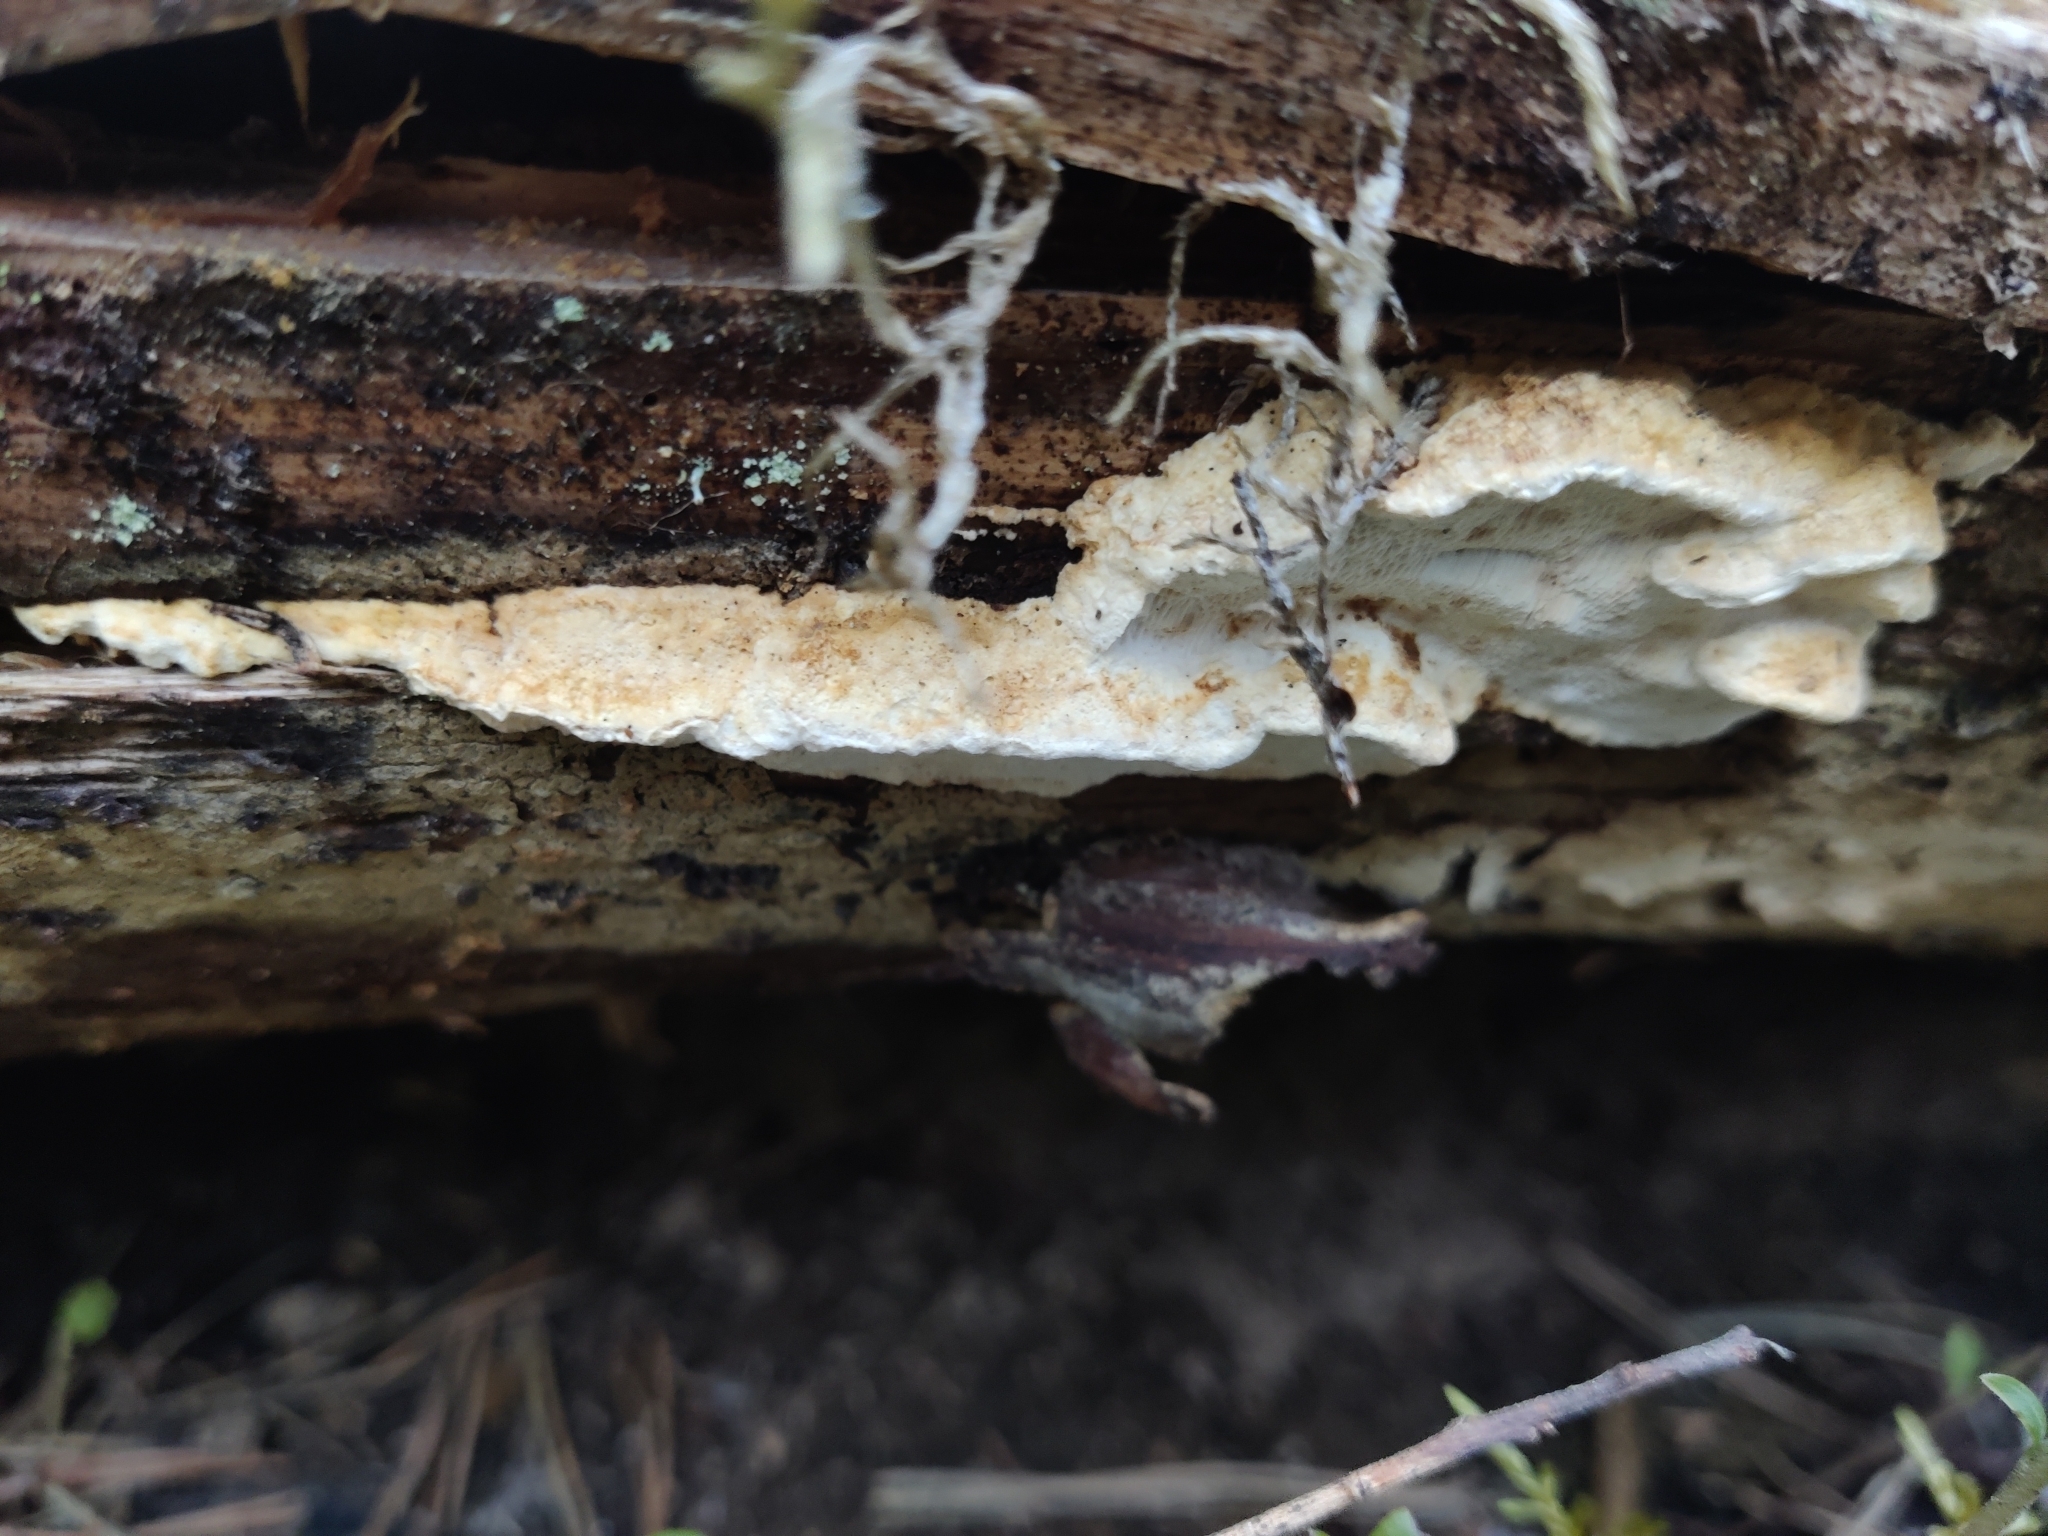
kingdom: Fungi
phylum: Basidiomycota
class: Agaricomycetes
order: Polyporales
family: Fomitopsidaceae
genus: Neoantrodia
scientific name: Neoantrodia serialis
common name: Serried porecrust
